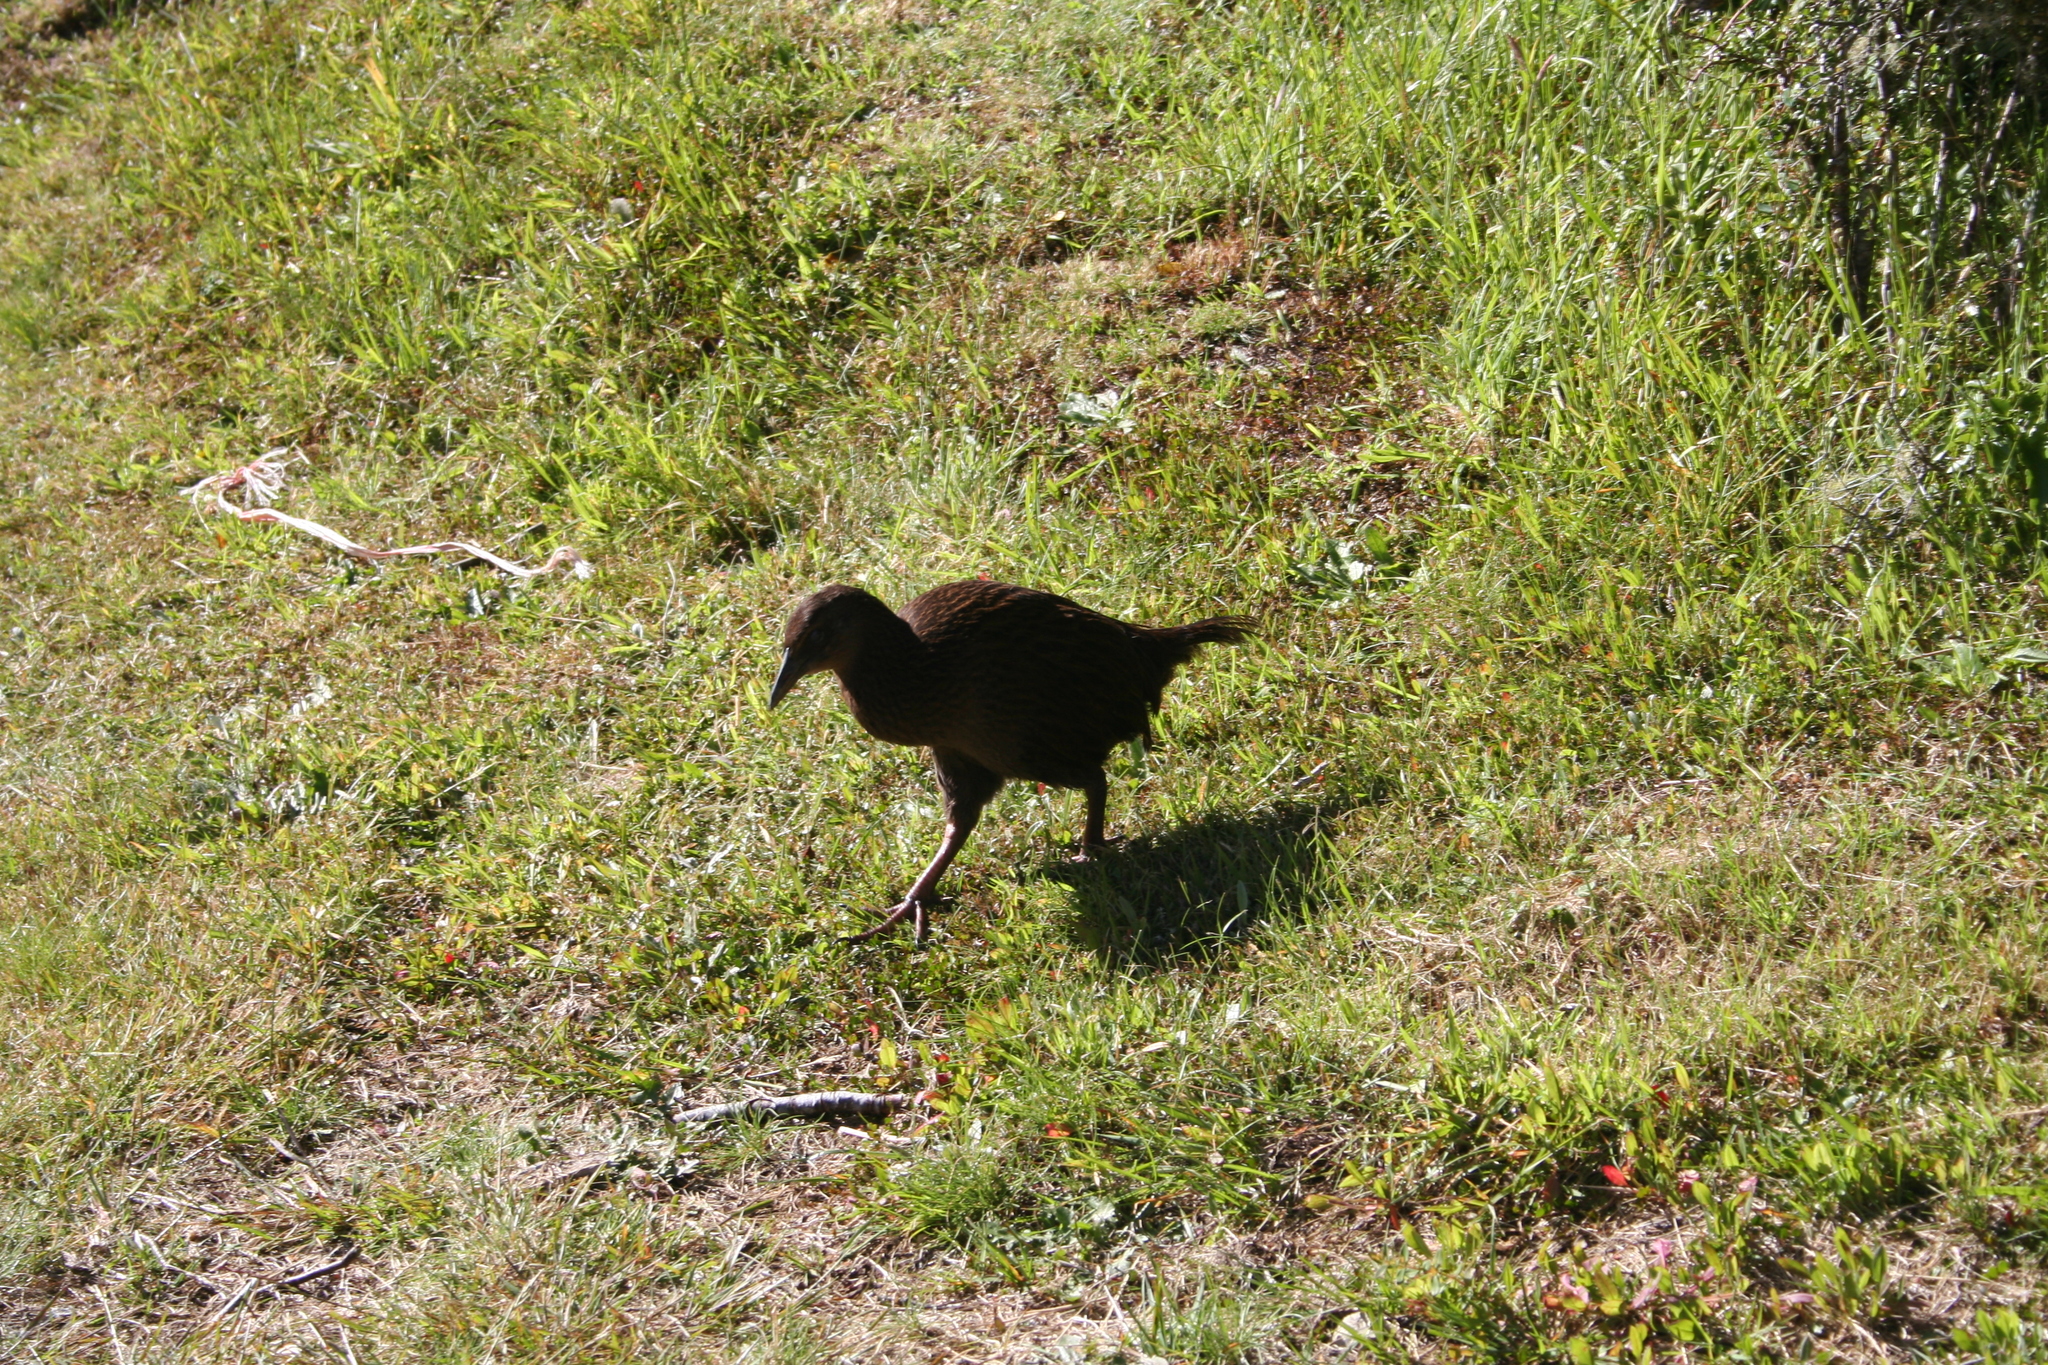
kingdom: Animalia
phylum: Chordata
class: Aves
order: Gruiformes
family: Rallidae
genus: Gallirallus
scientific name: Gallirallus australis
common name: Weka
